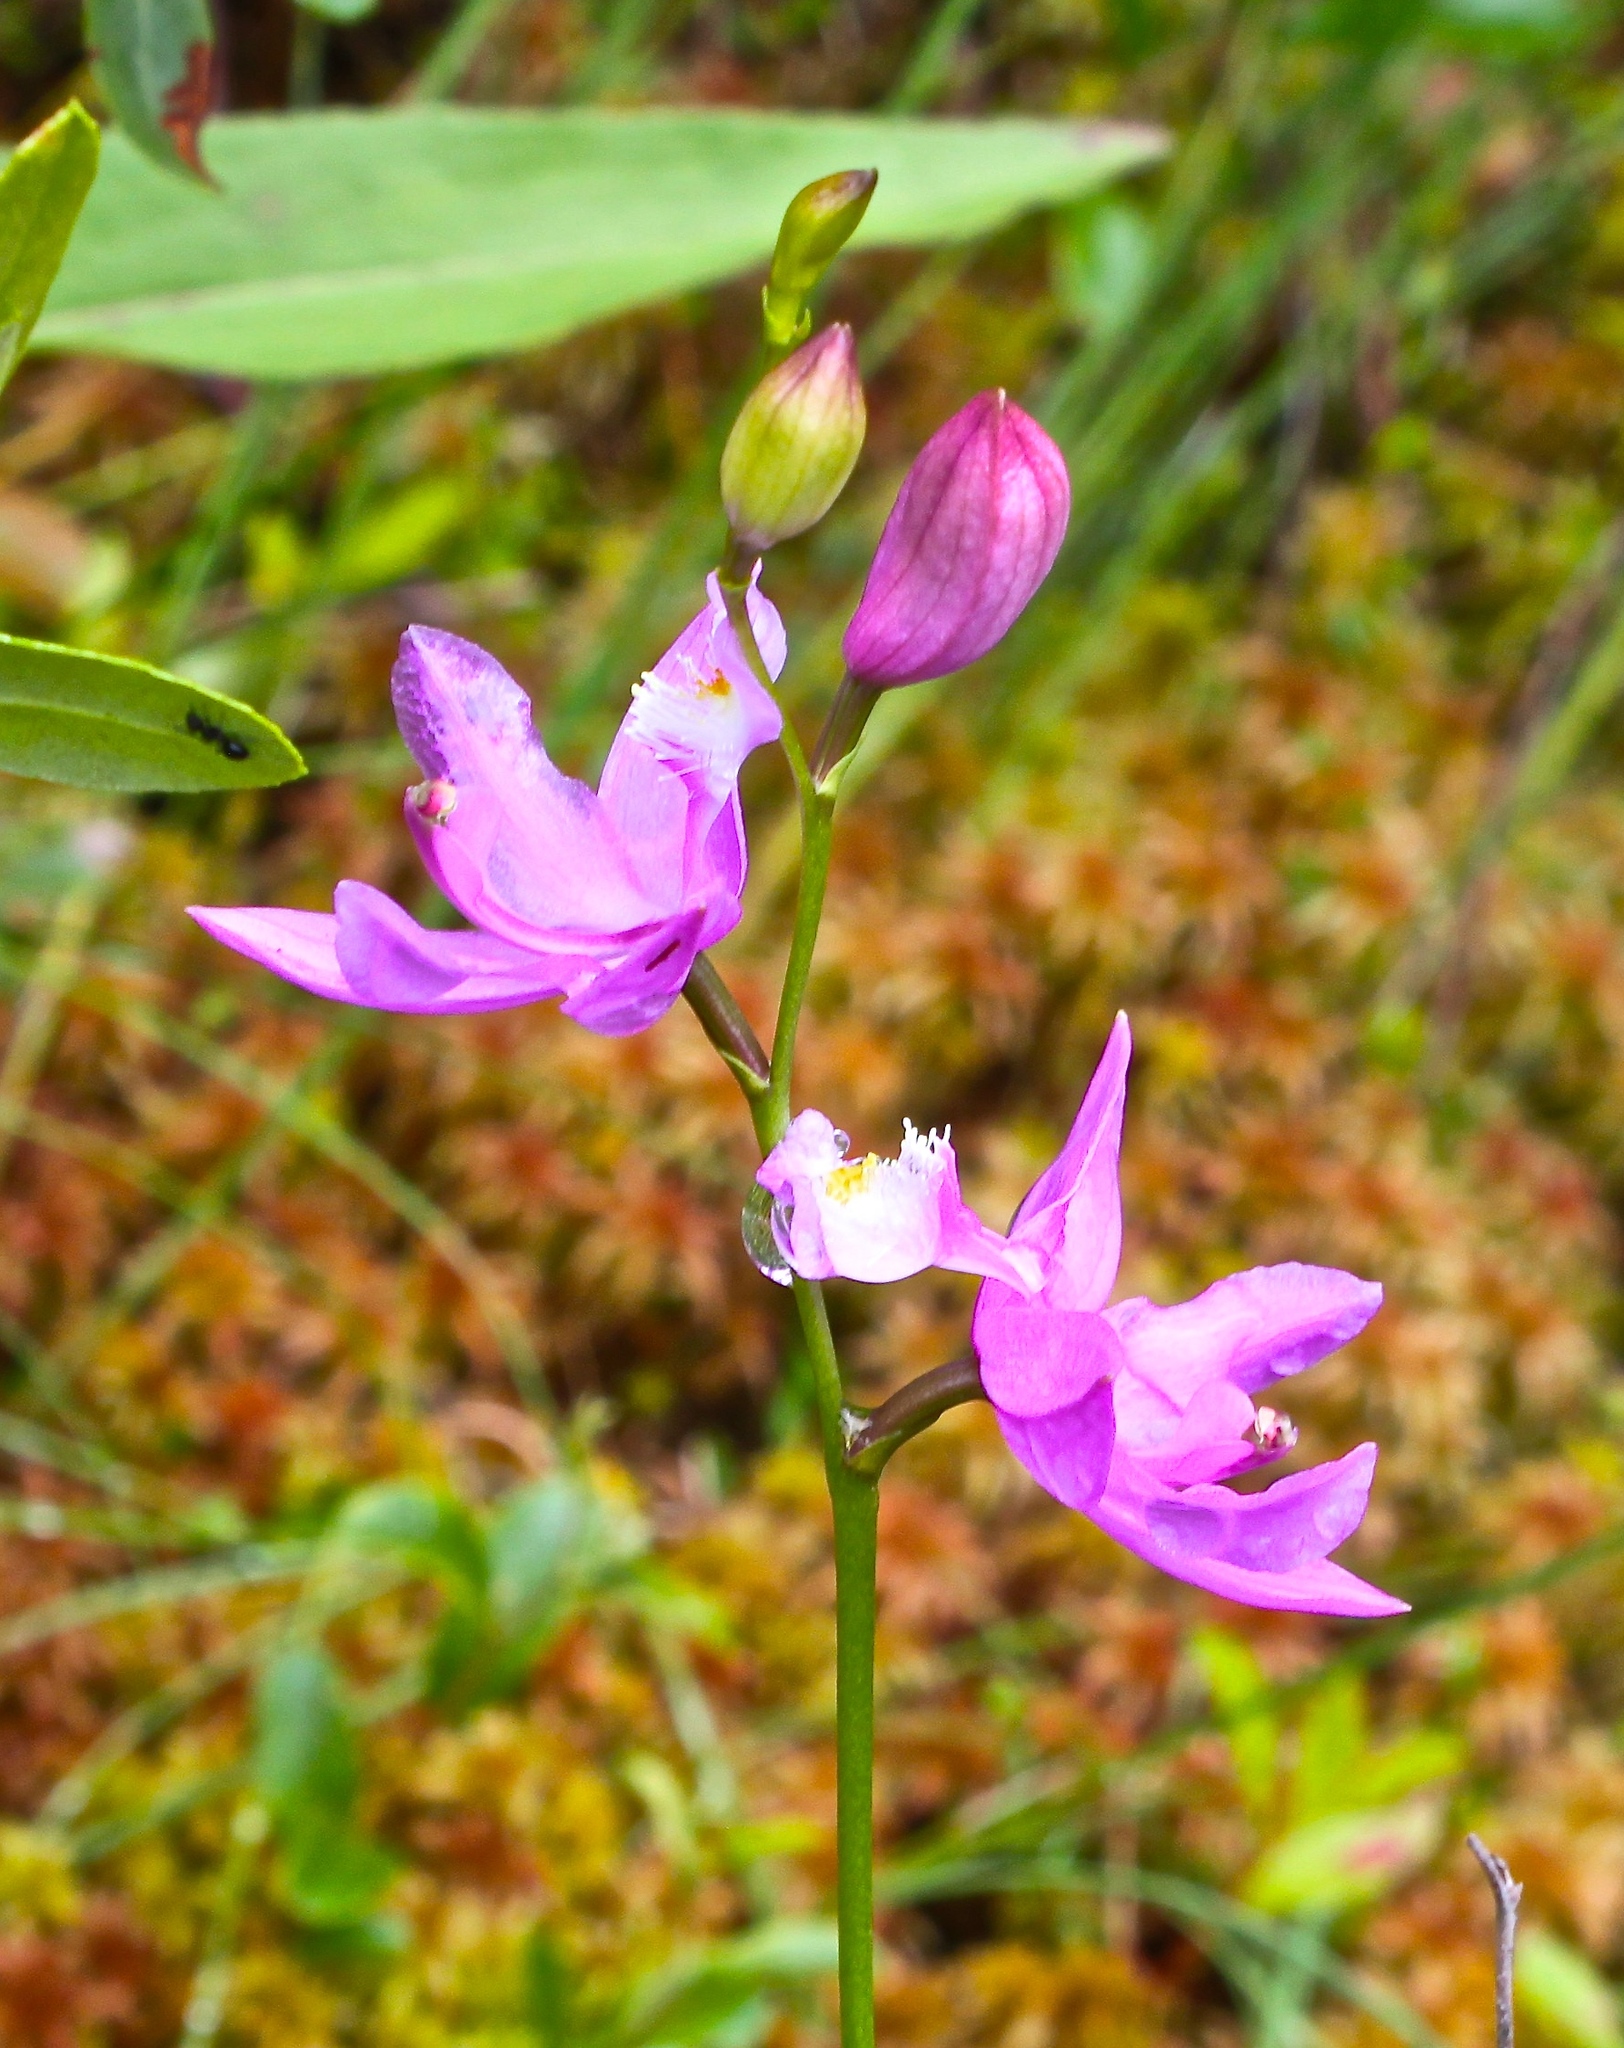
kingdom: Plantae
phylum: Tracheophyta
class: Liliopsida
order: Asparagales
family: Orchidaceae
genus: Calopogon
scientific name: Calopogon tuberosus
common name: Grass-pink
